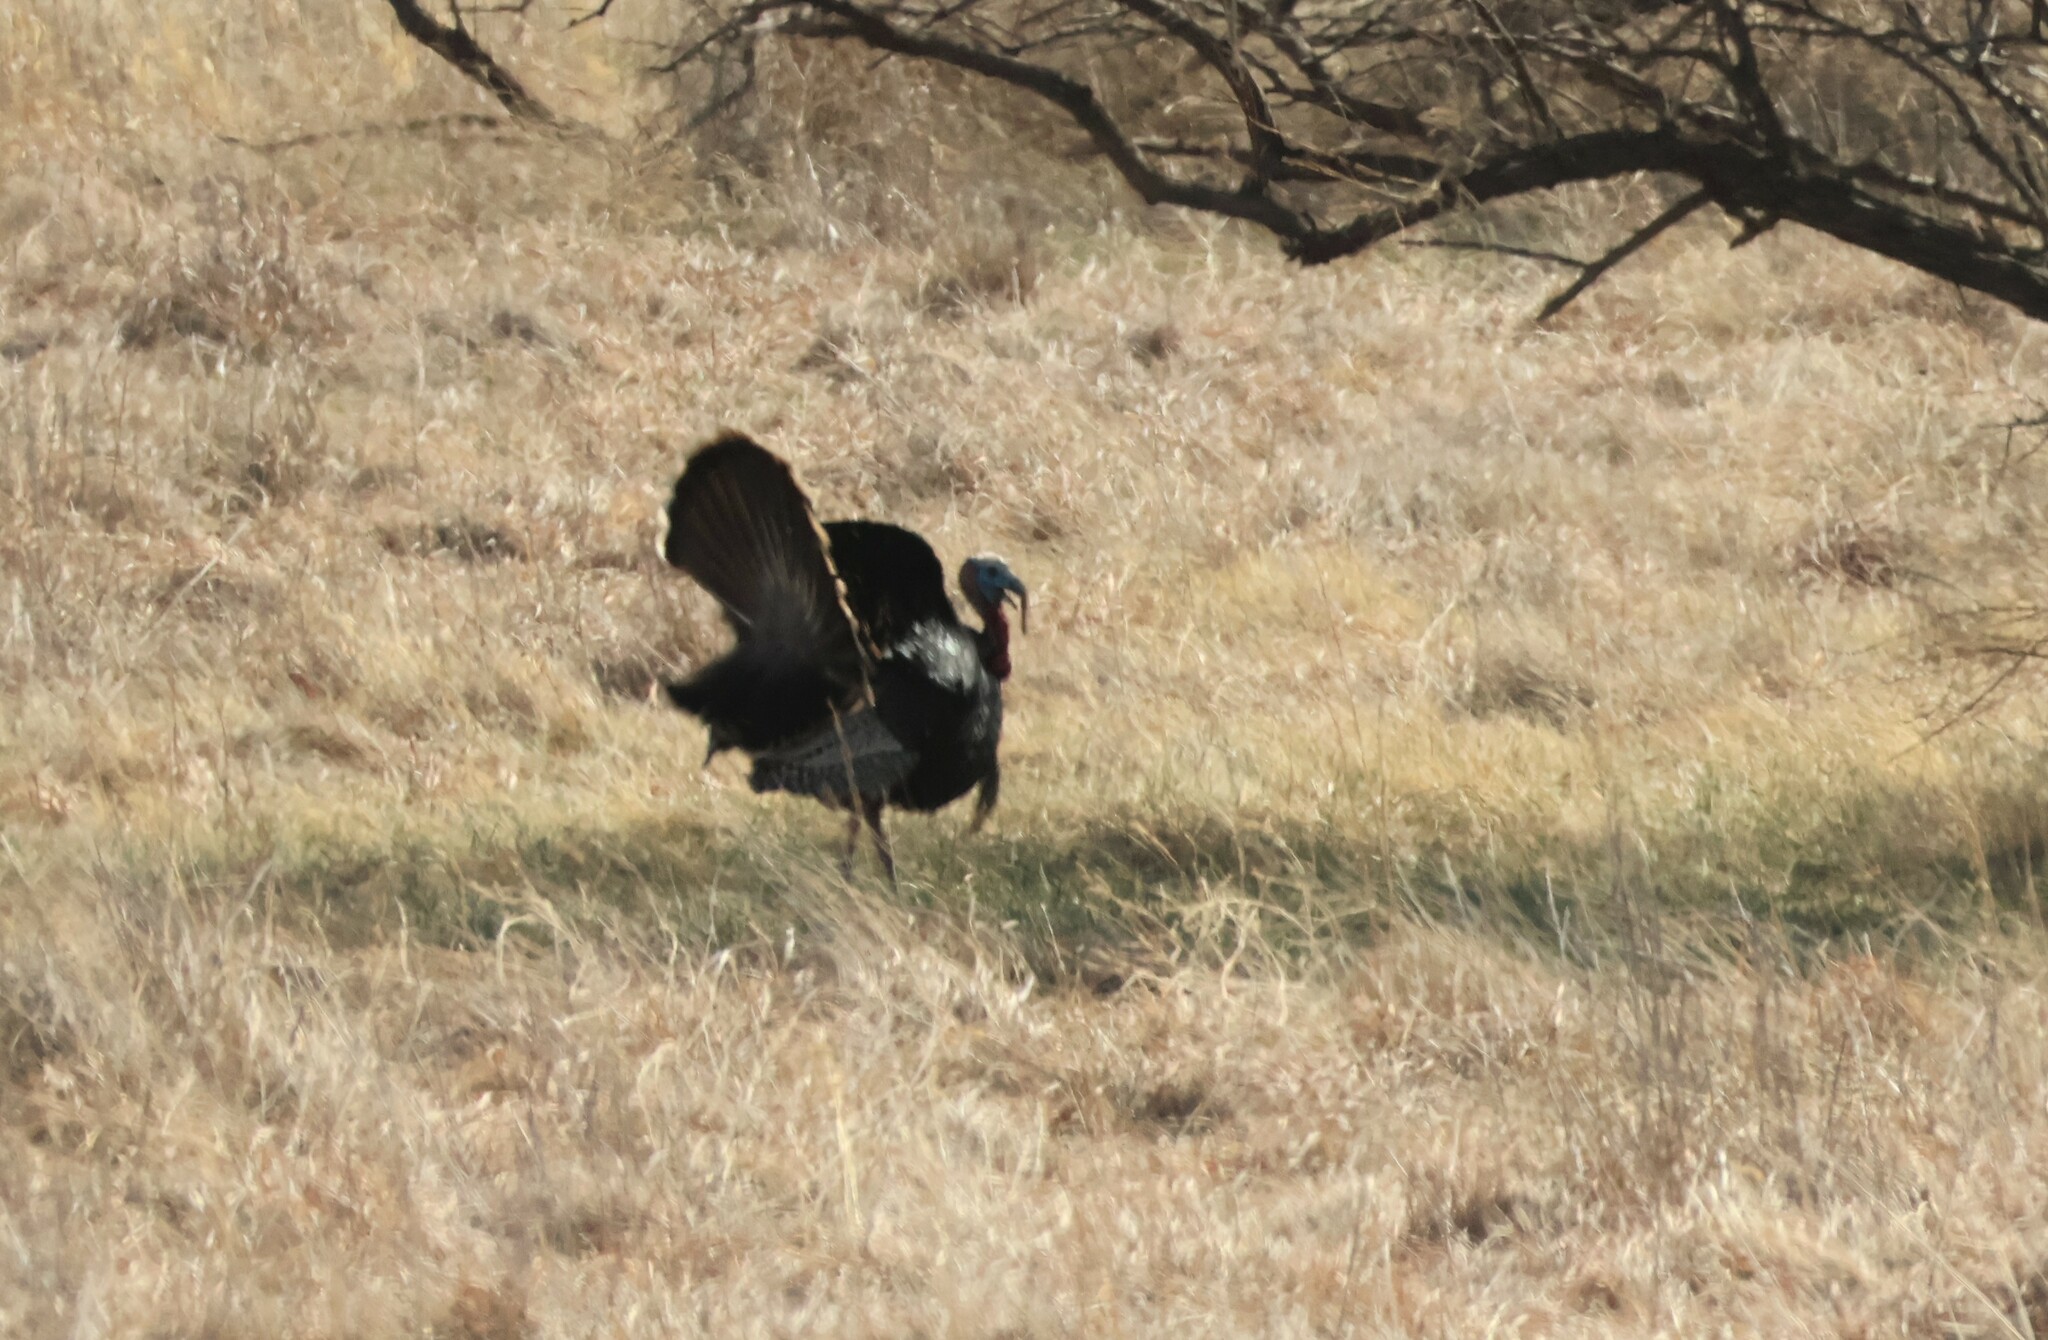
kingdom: Animalia
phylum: Chordata
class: Aves
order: Galliformes
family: Phasianidae
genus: Meleagris
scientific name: Meleagris gallopavo
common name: Wild turkey
